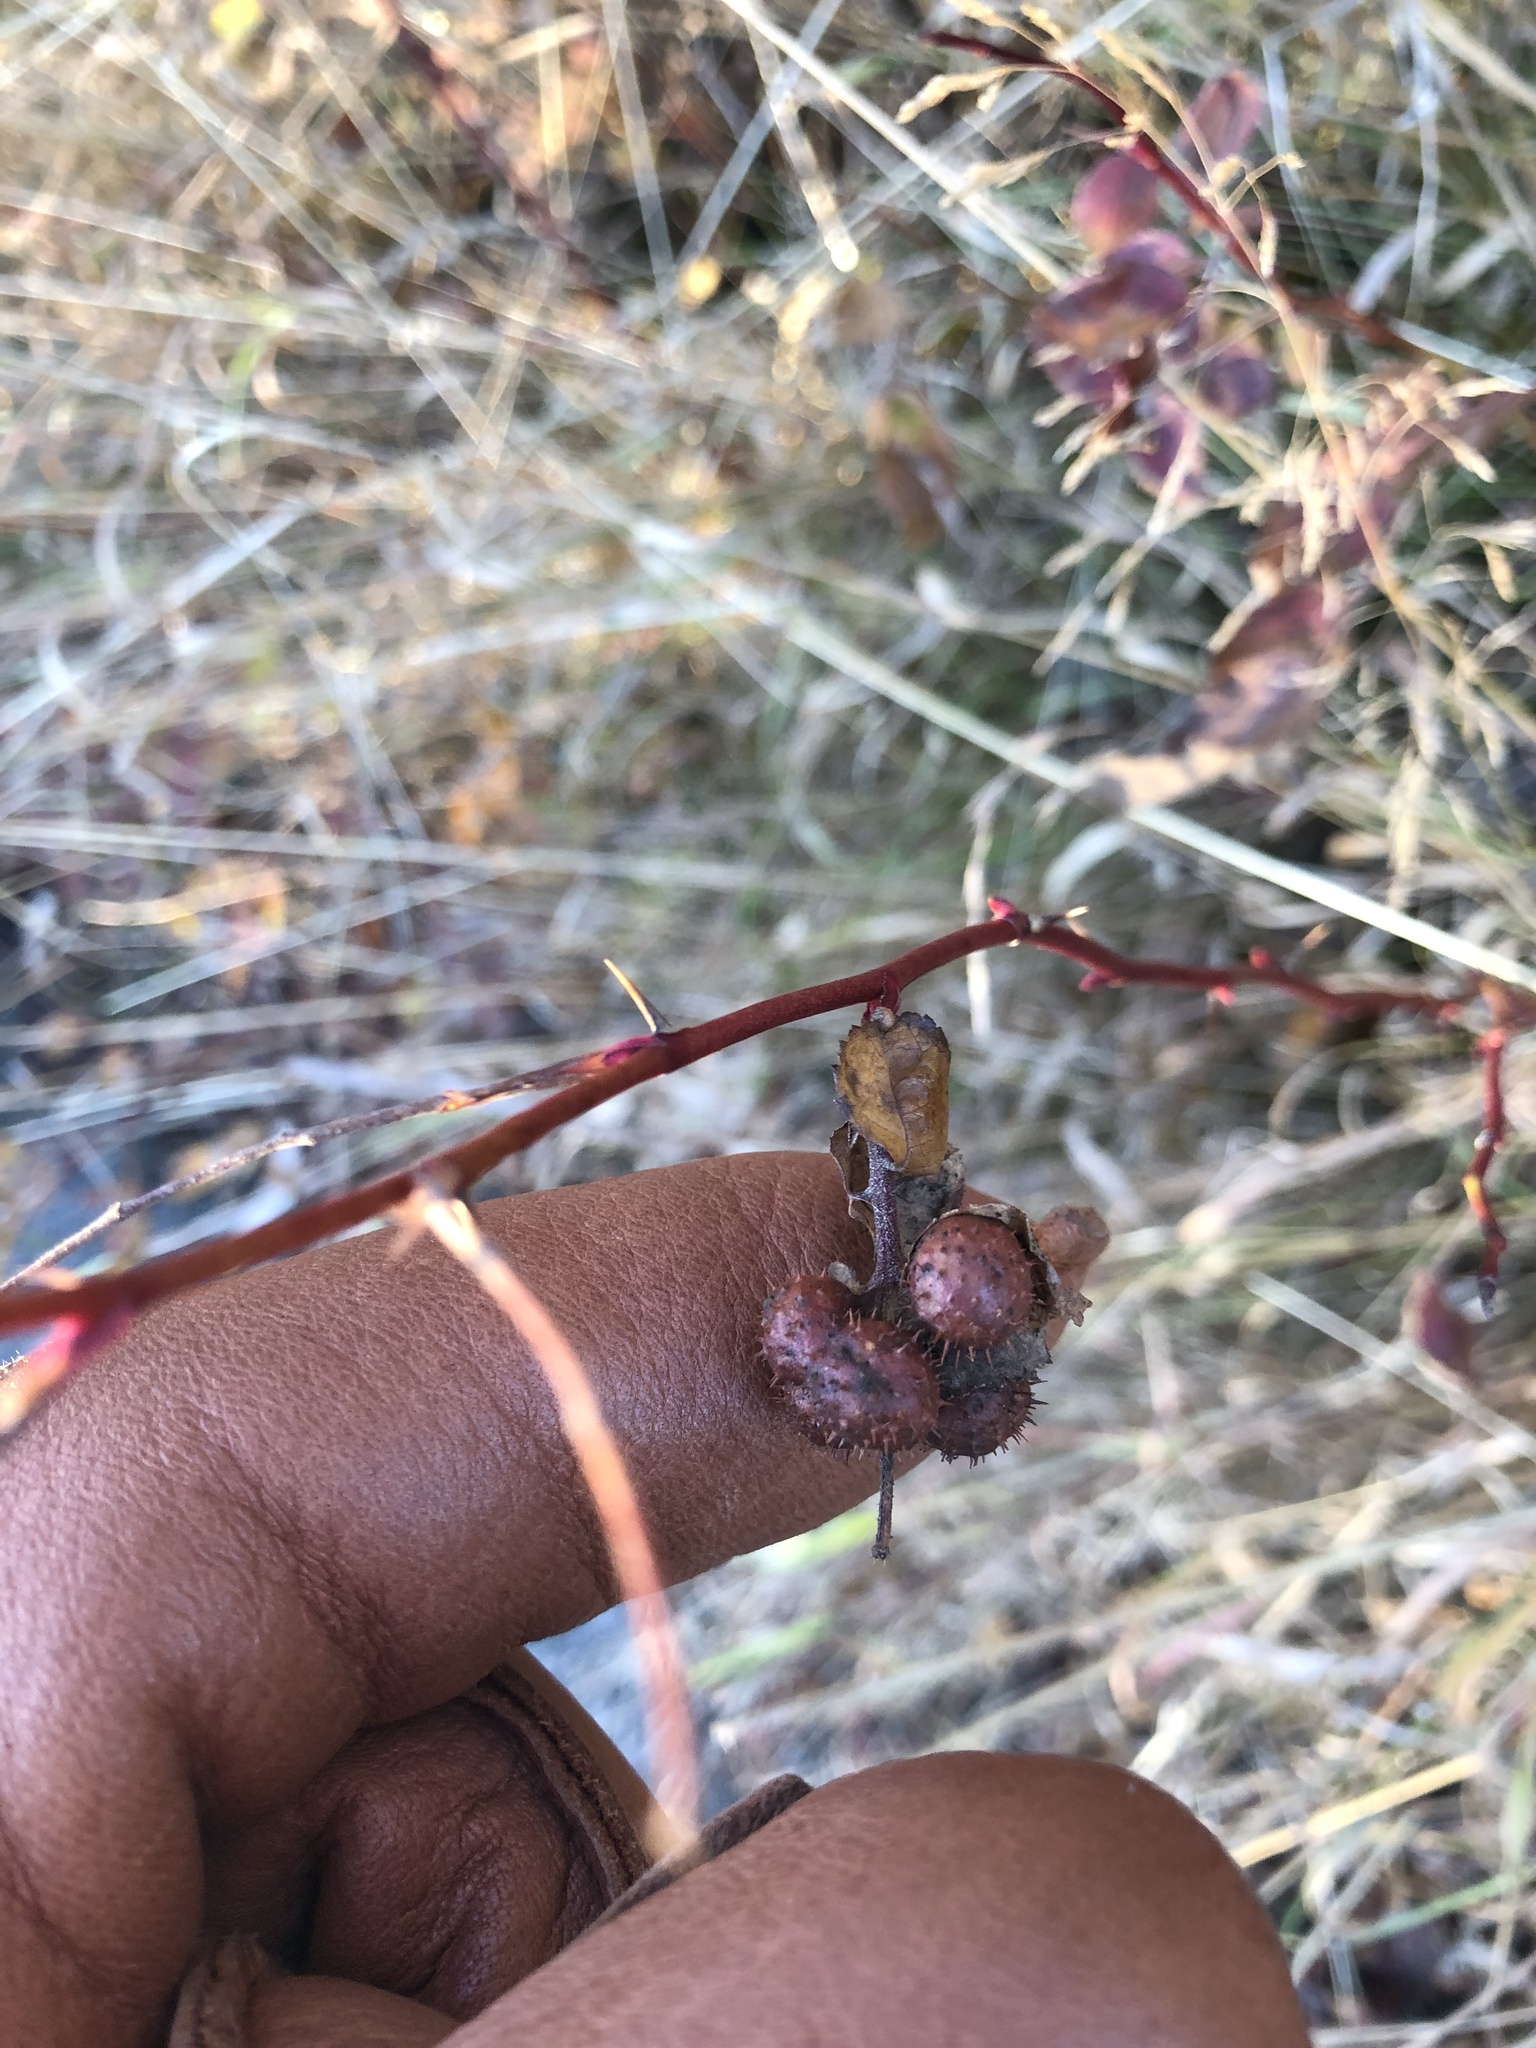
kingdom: Animalia
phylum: Arthropoda
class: Insecta
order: Hymenoptera
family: Cynipidae
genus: Diplolepis
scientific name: Diplolepis polita
